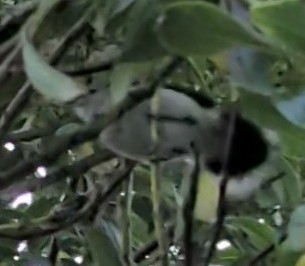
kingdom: Animalia
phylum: Chordata
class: Aves
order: Passeriformes
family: Acanthizidae
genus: Gerygone
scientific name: Gerygone igata
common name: Grey gerygone
